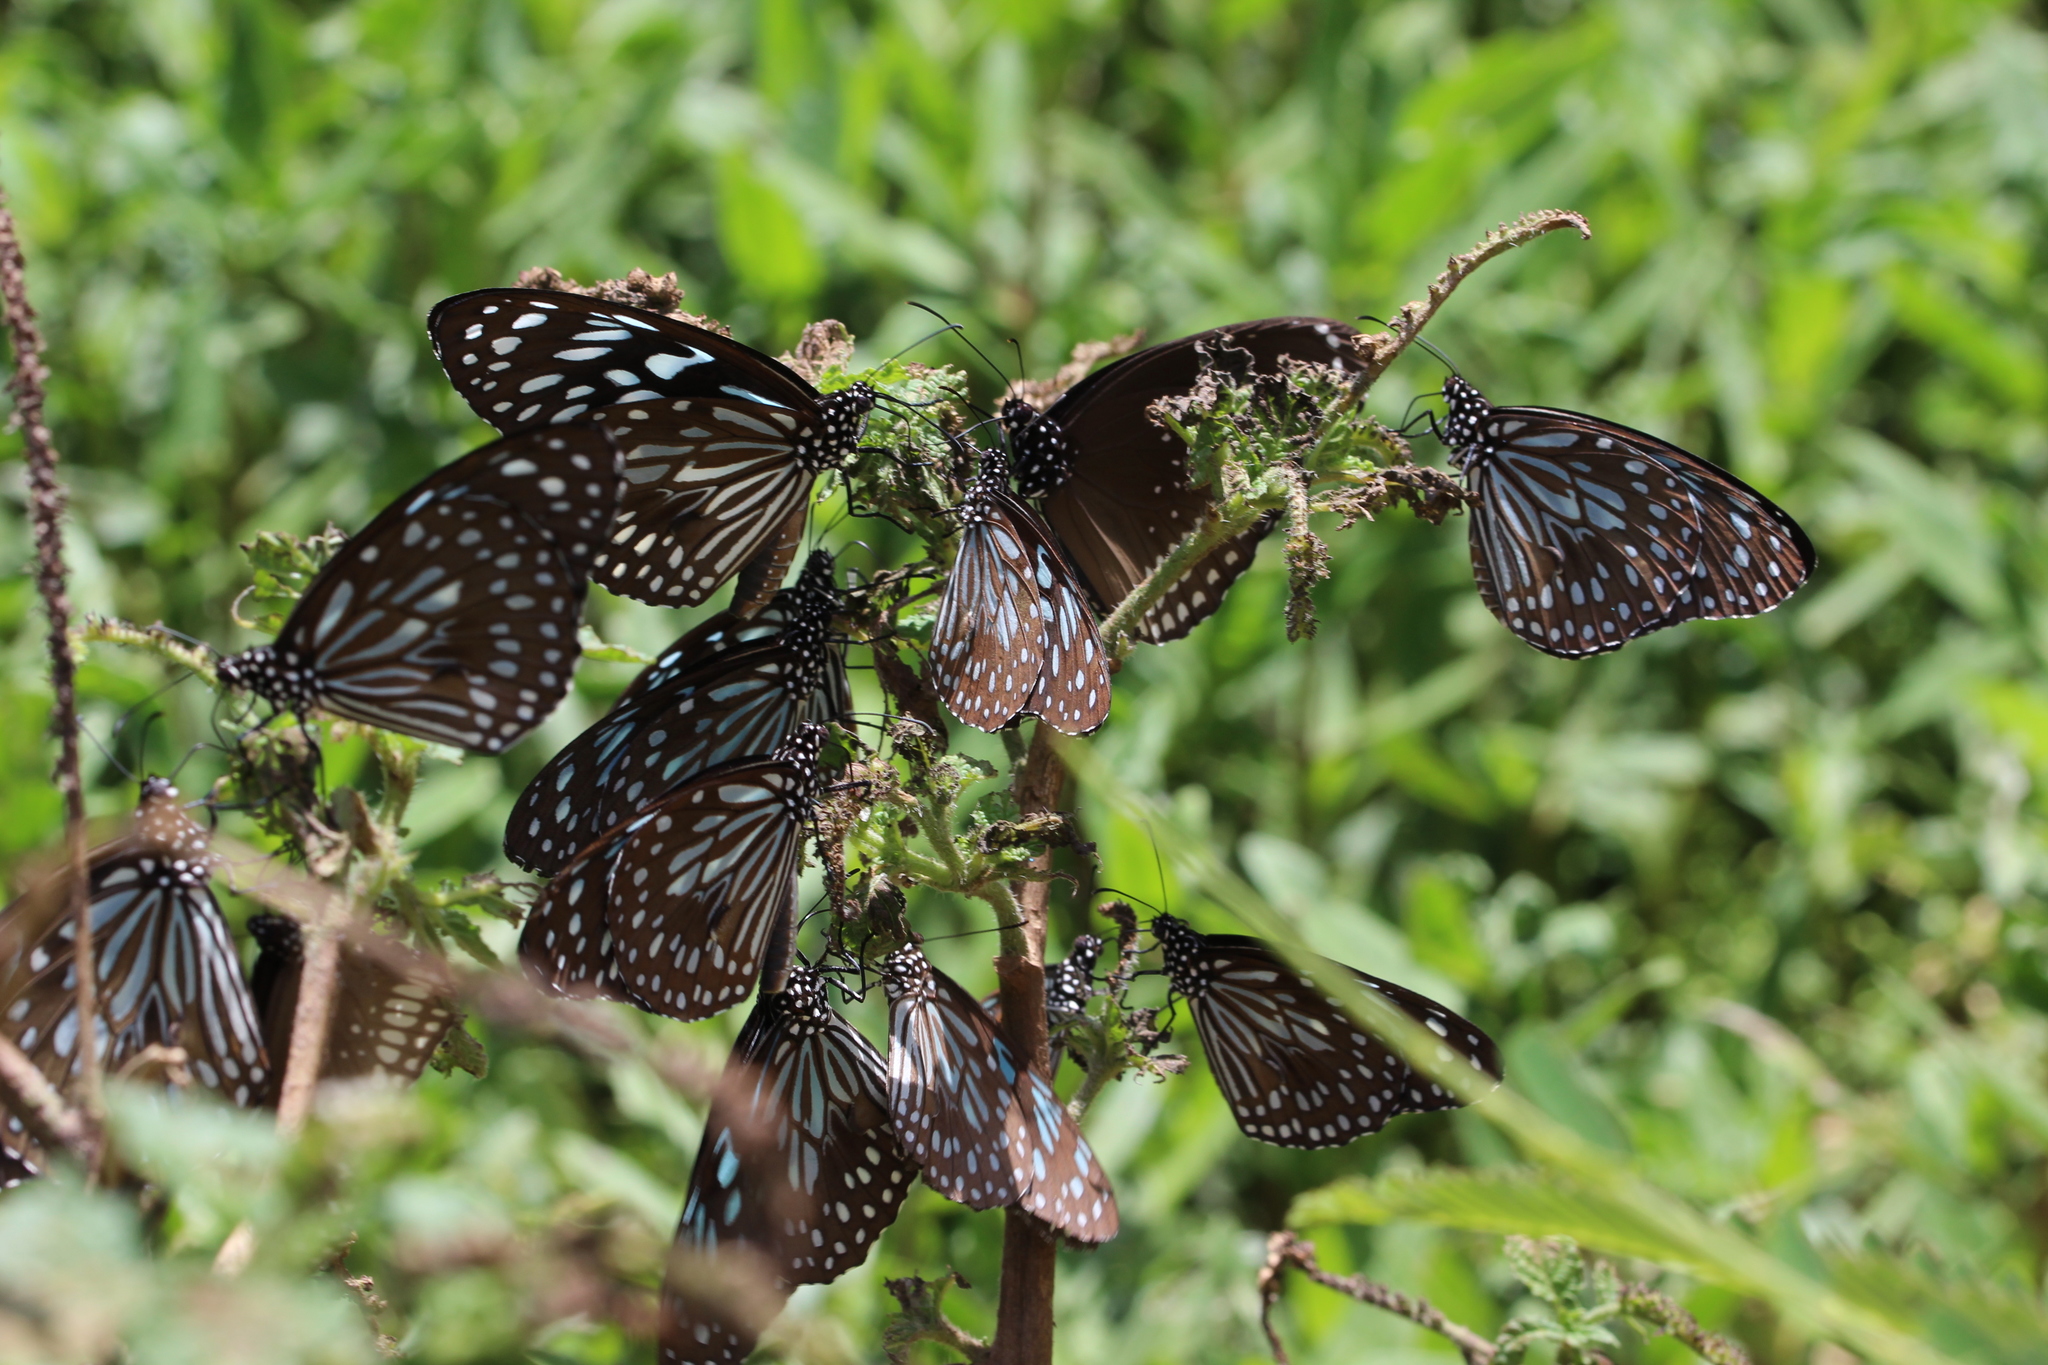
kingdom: Animalia
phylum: Arthropoda
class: Insecta
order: Lepidoptera
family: Nymphalidae
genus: Tirumala
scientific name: Tirumala septentrionis
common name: Dark blue tiger butterfly
